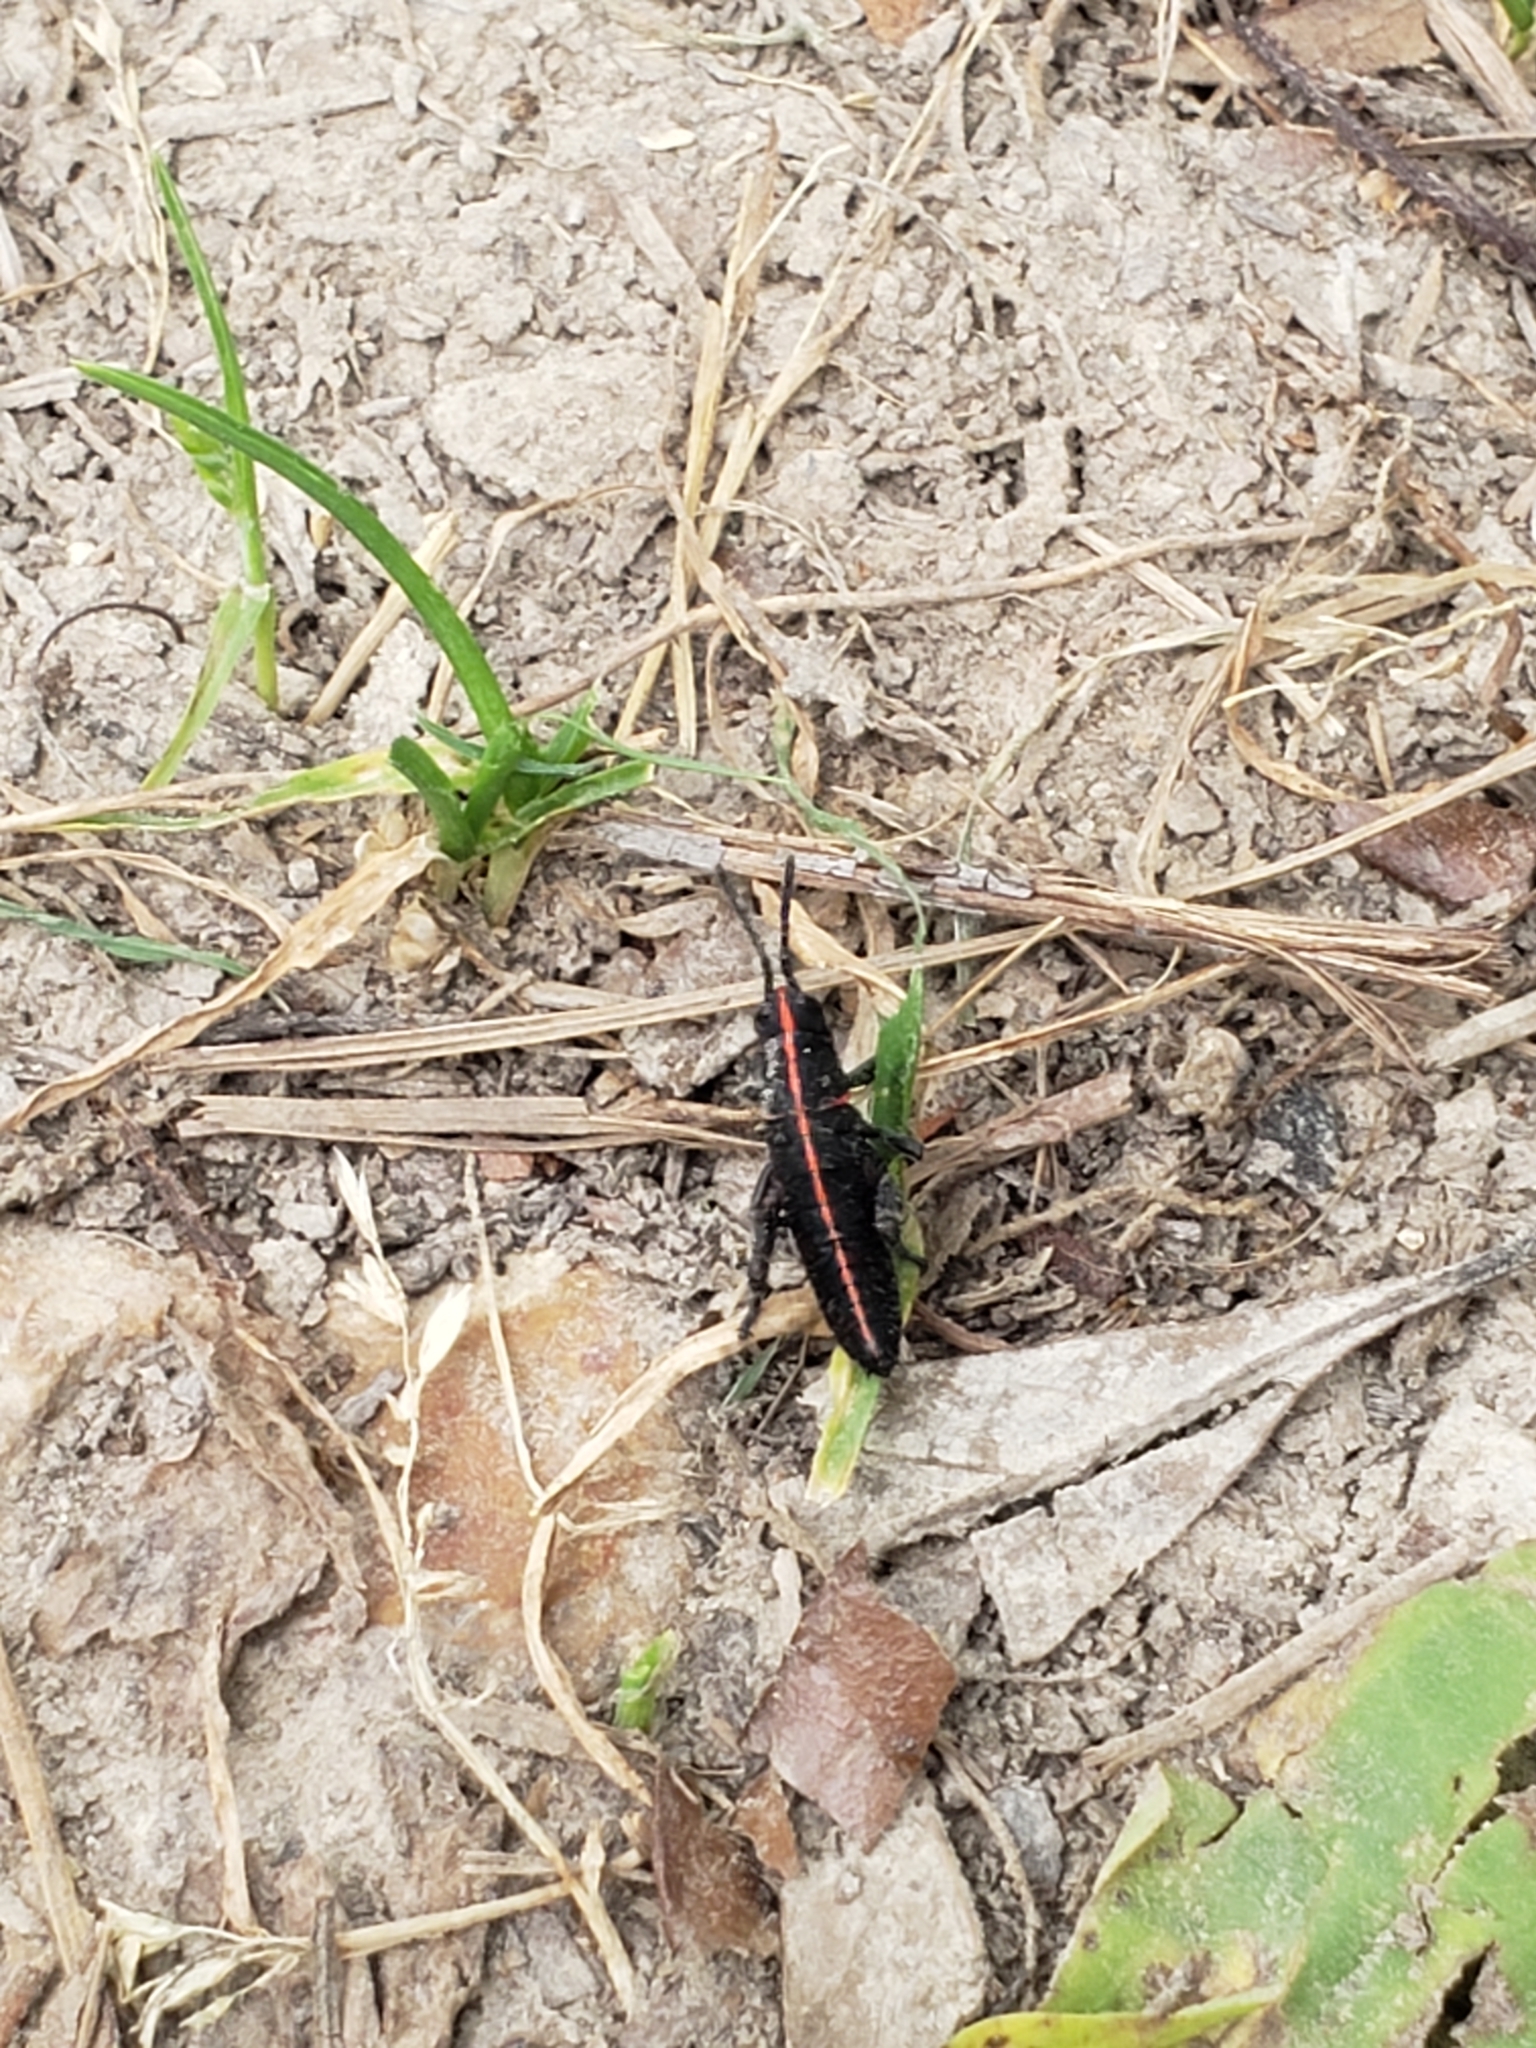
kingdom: Animalia
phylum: Arthropoda
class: Insecta
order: Orthoptera
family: Romaleidae
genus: Romalea
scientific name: Romalea microptera
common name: Eastern lubber grasshopper
